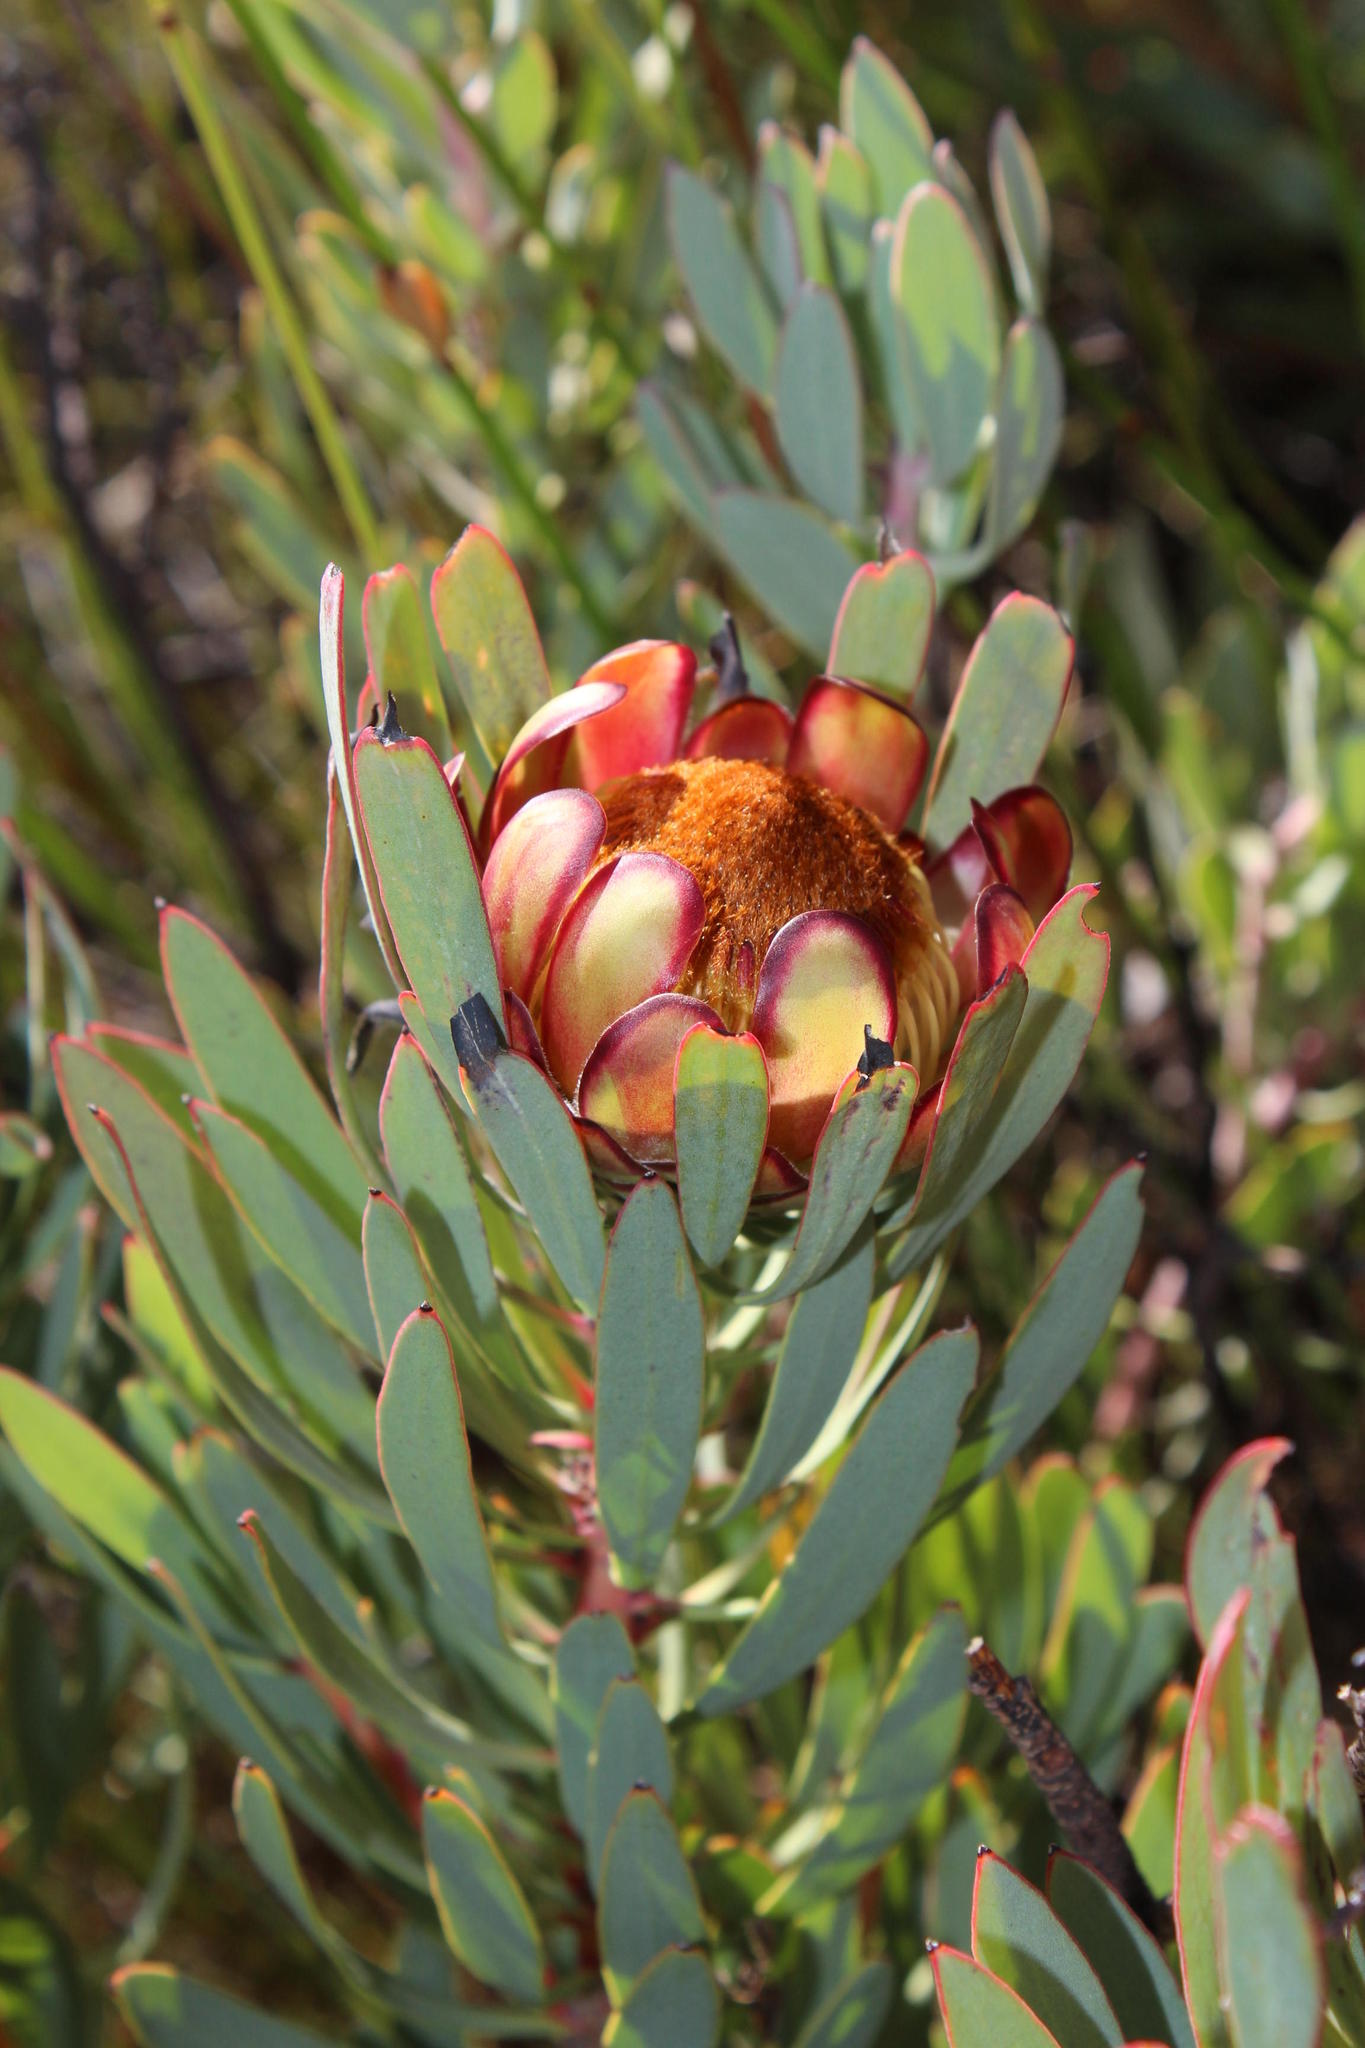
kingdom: Plantae
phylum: Tracheophyta
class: Magnoliopsida
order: Proteales
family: Proteaceae
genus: Protea
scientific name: Protea
